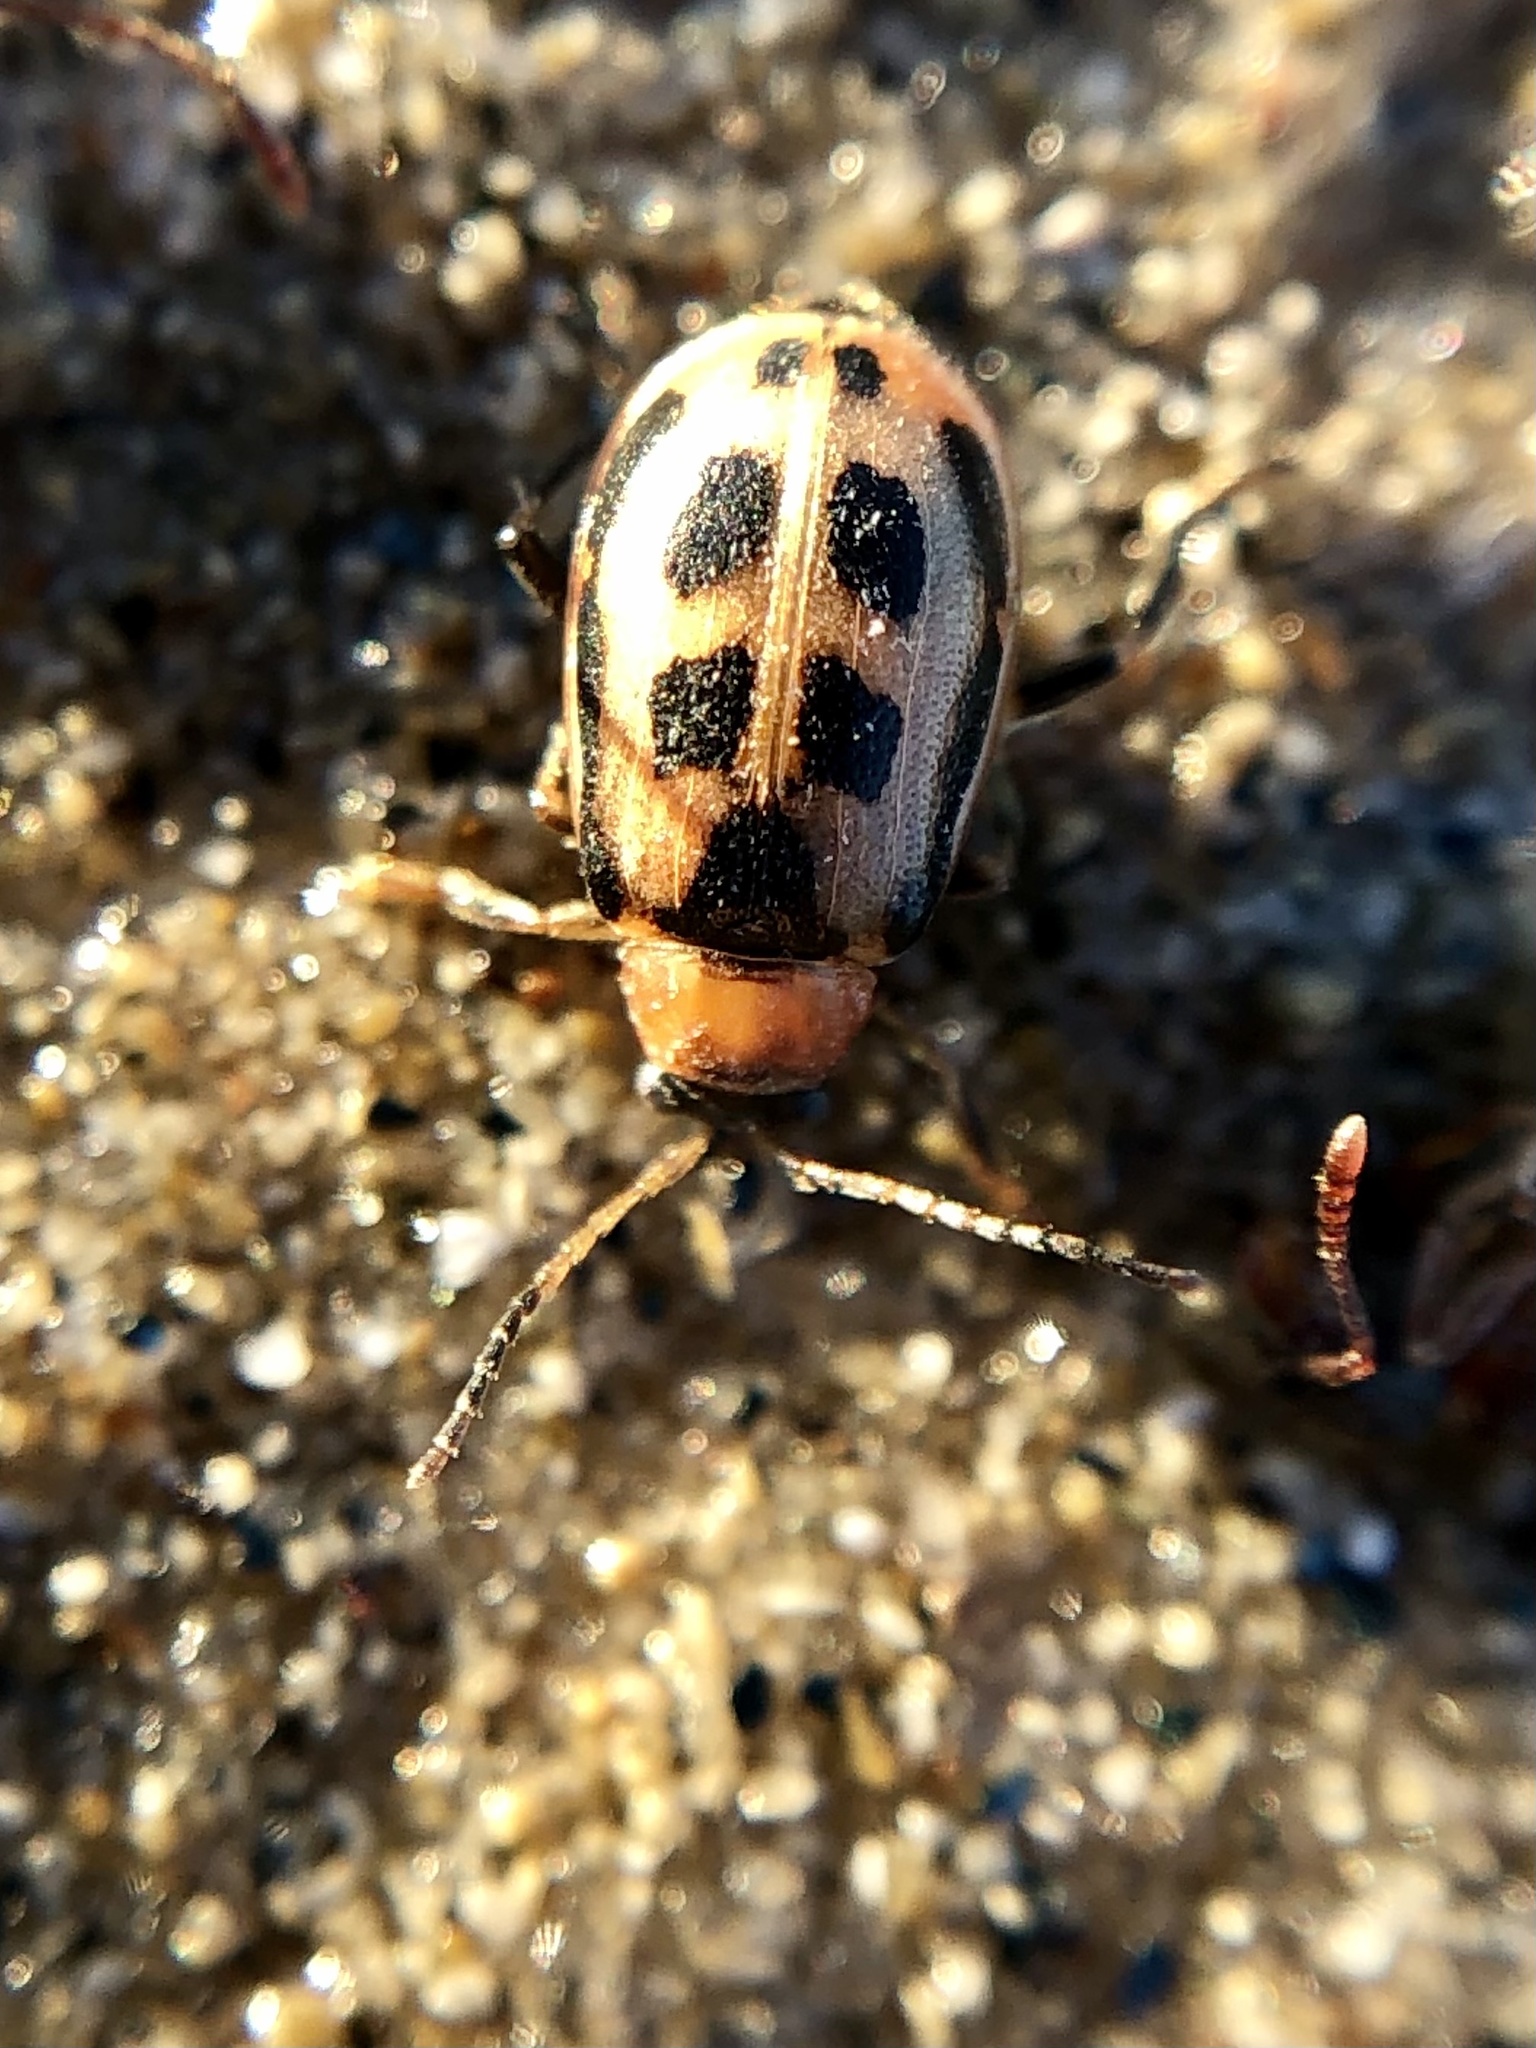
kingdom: Animalia
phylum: Arthropoda
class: Insecta
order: Coleoptera
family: Chrysomelidae
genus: Cerotoma
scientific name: Cerotoma trifurcata
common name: Bean leaf beetle
